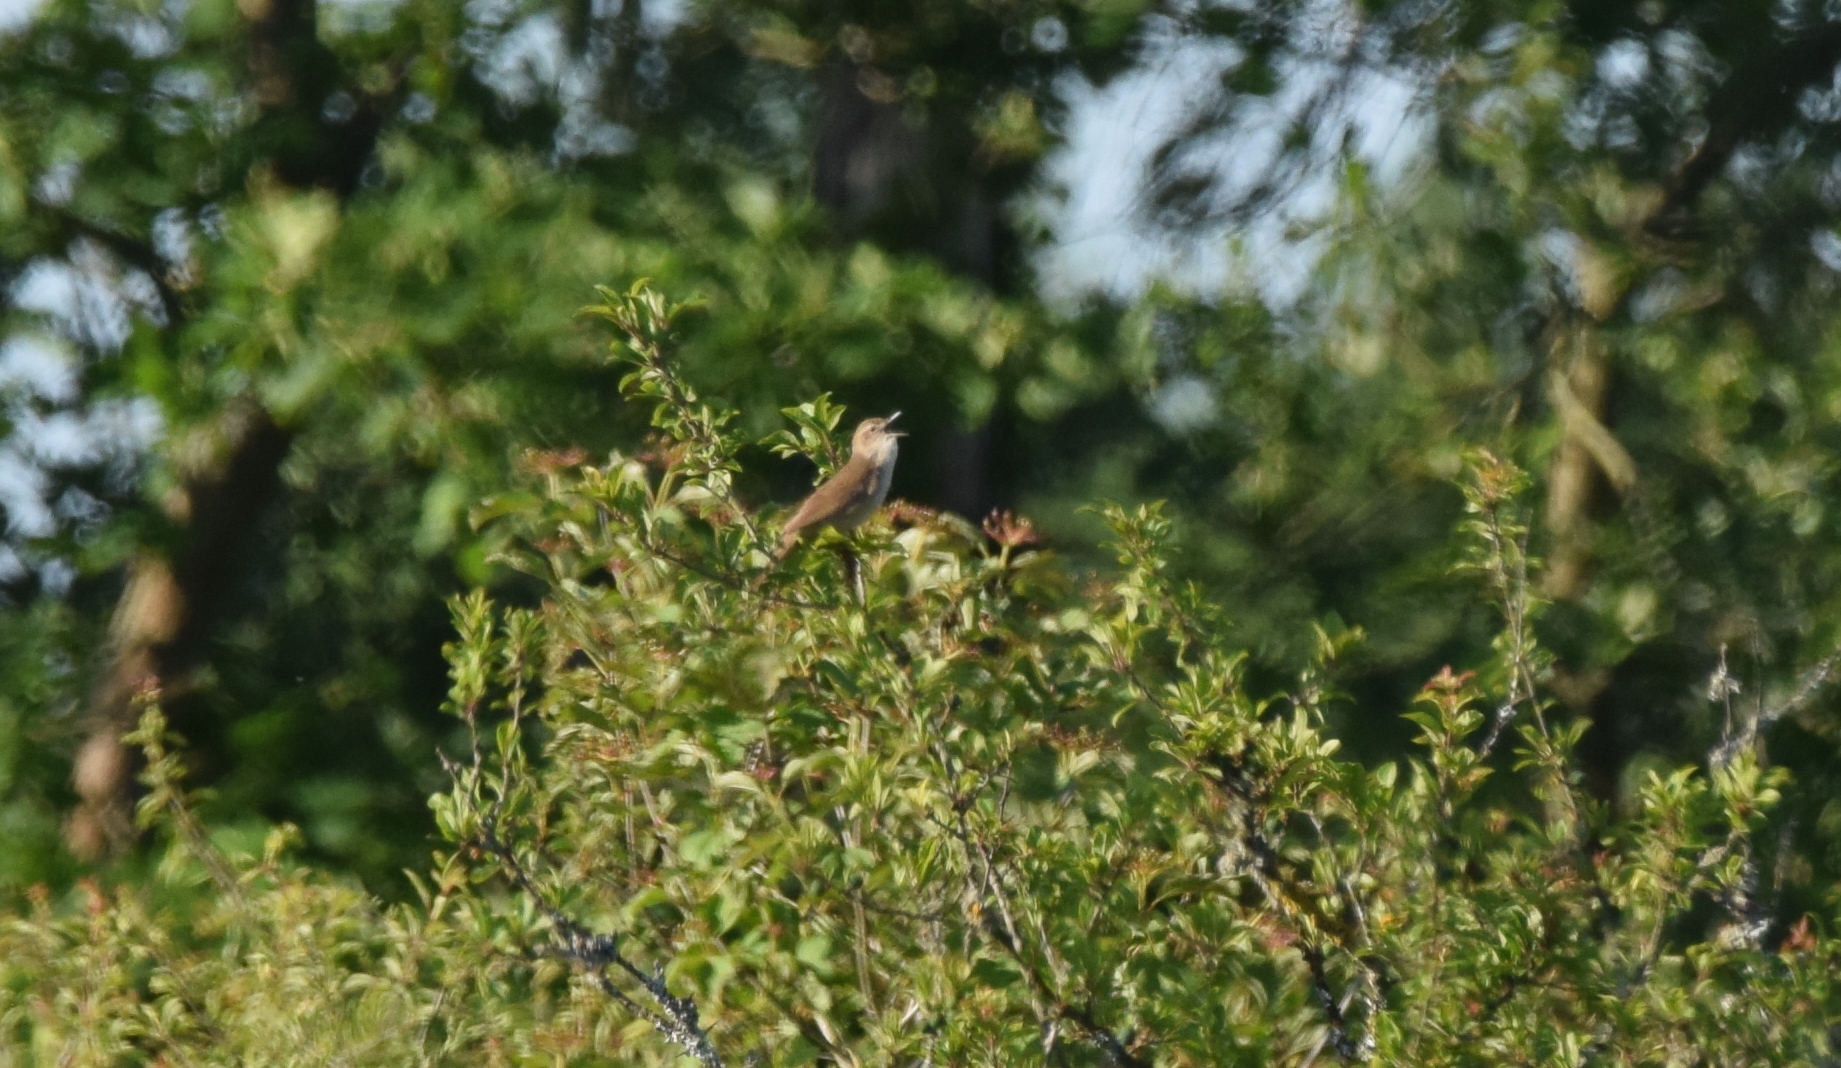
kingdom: Animalia
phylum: Chordata
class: Aves
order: Passeriformes
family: Locustellidae
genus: Locustella
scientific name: Locustella luscinioides
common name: Savi's warbler
